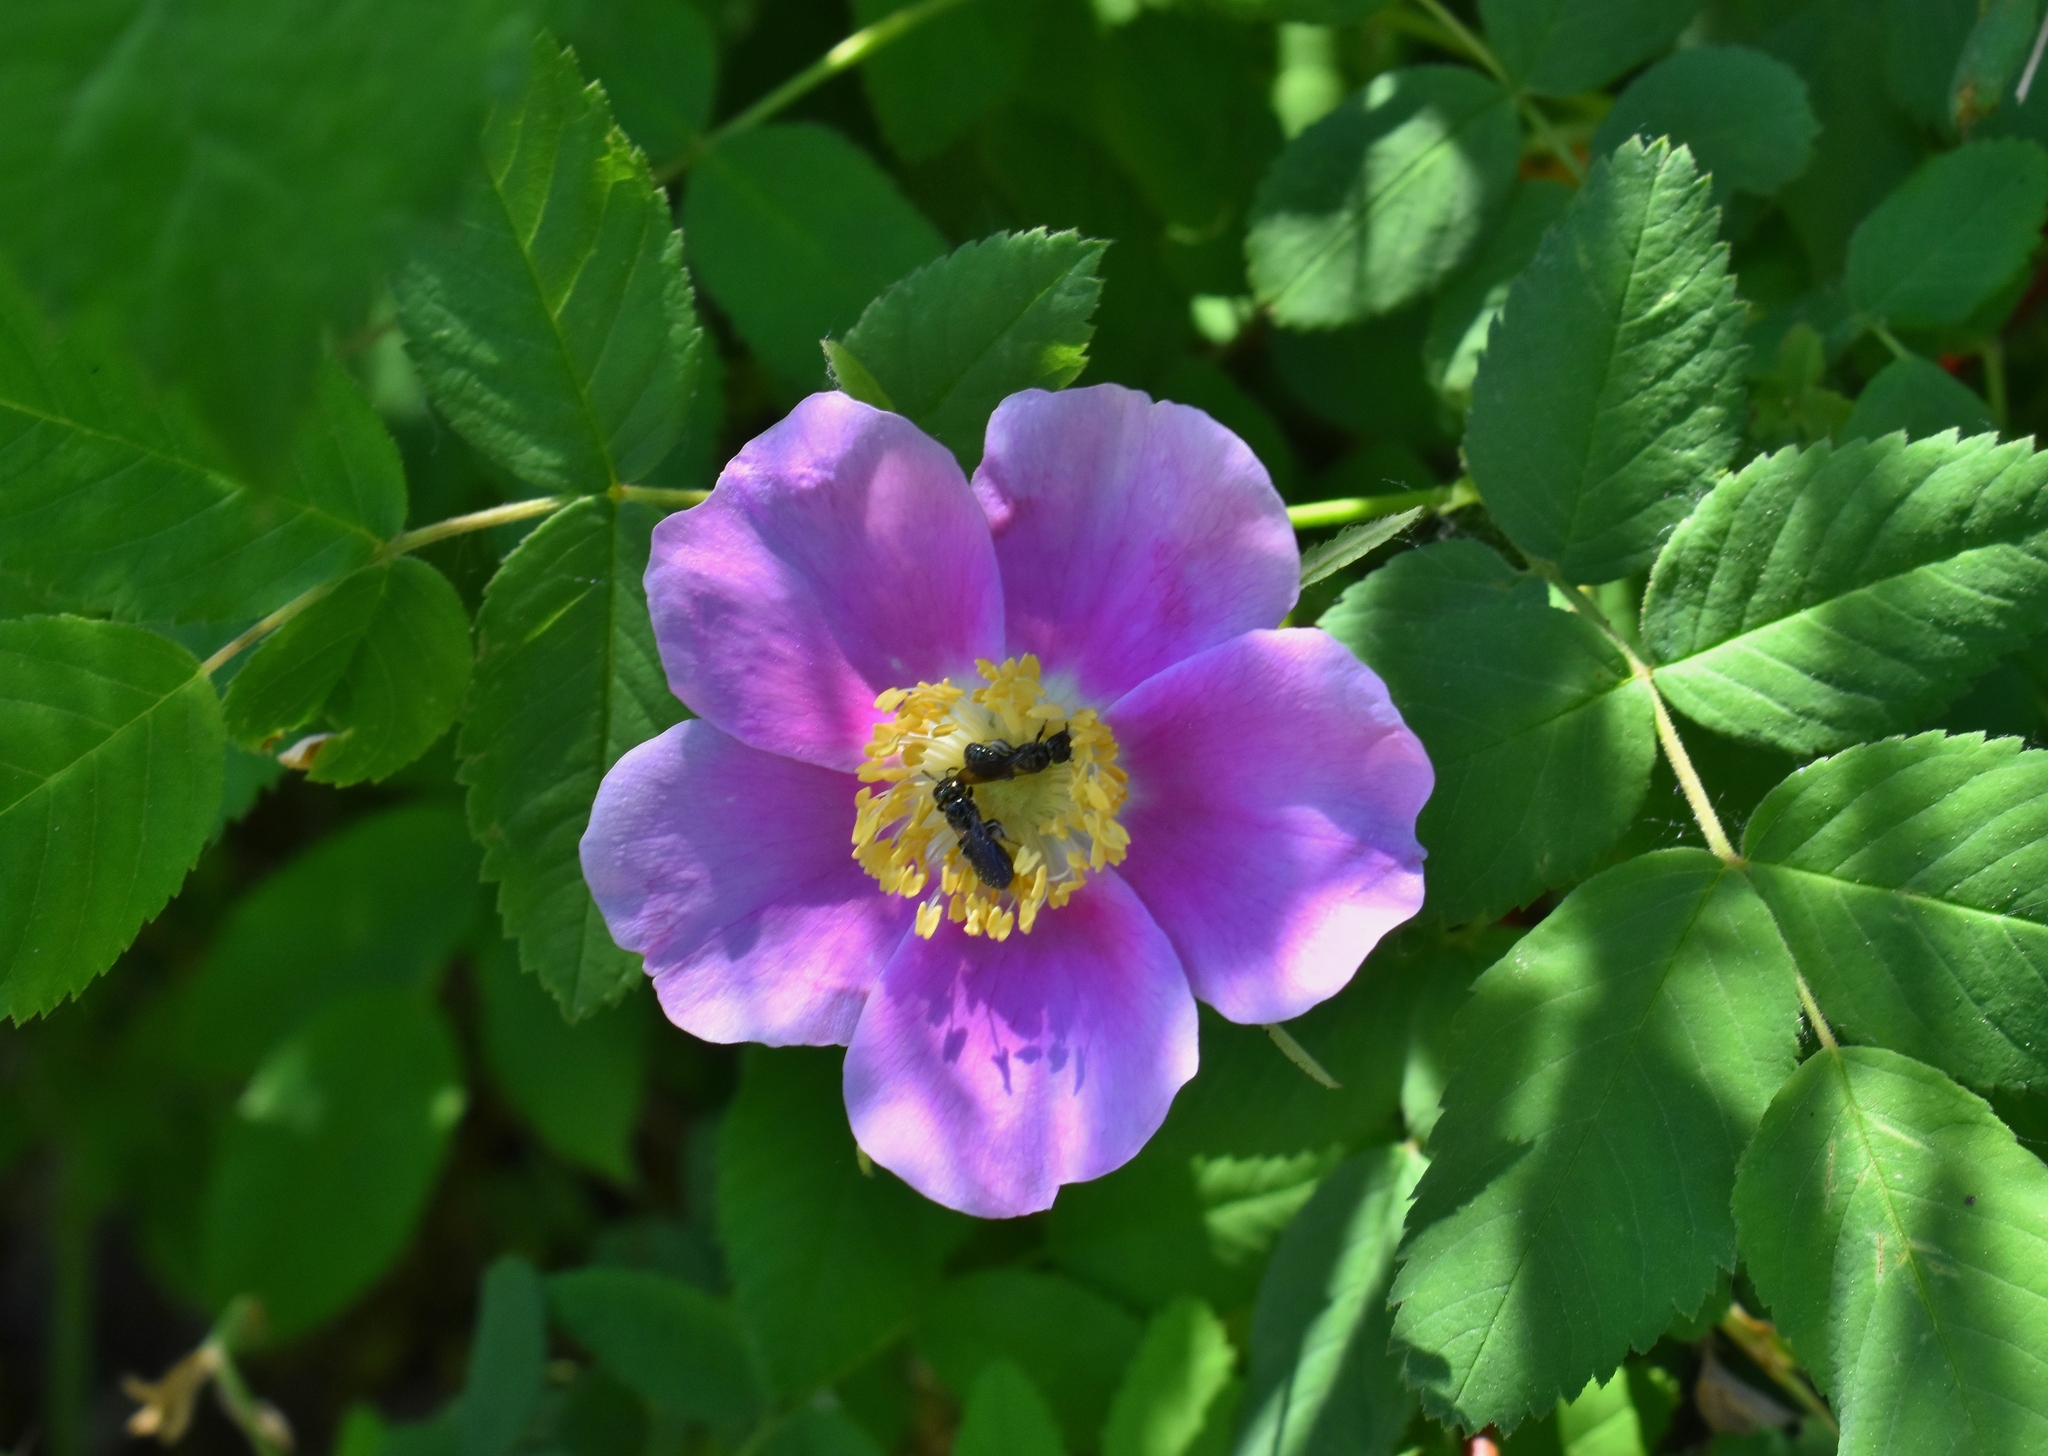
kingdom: Plantae
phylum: Tracheophyta
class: Magnoliopsida
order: Rosales
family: Rosaceae
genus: Rosa
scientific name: Rosa nutkana
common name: Nootka rose
